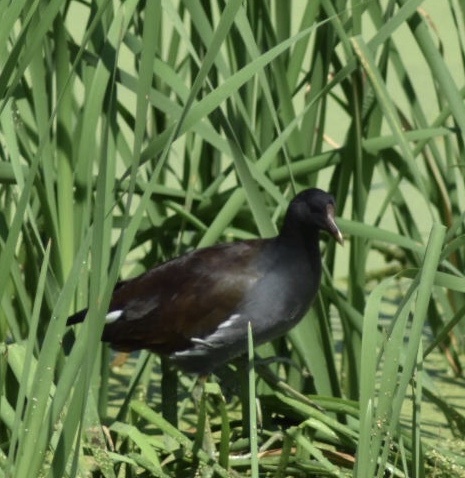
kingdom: Animalia
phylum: Chordata
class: Aves
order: Gruiformes
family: Rallidae
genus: Gallinula
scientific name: Gallinula chloropus
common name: Common moorhen
